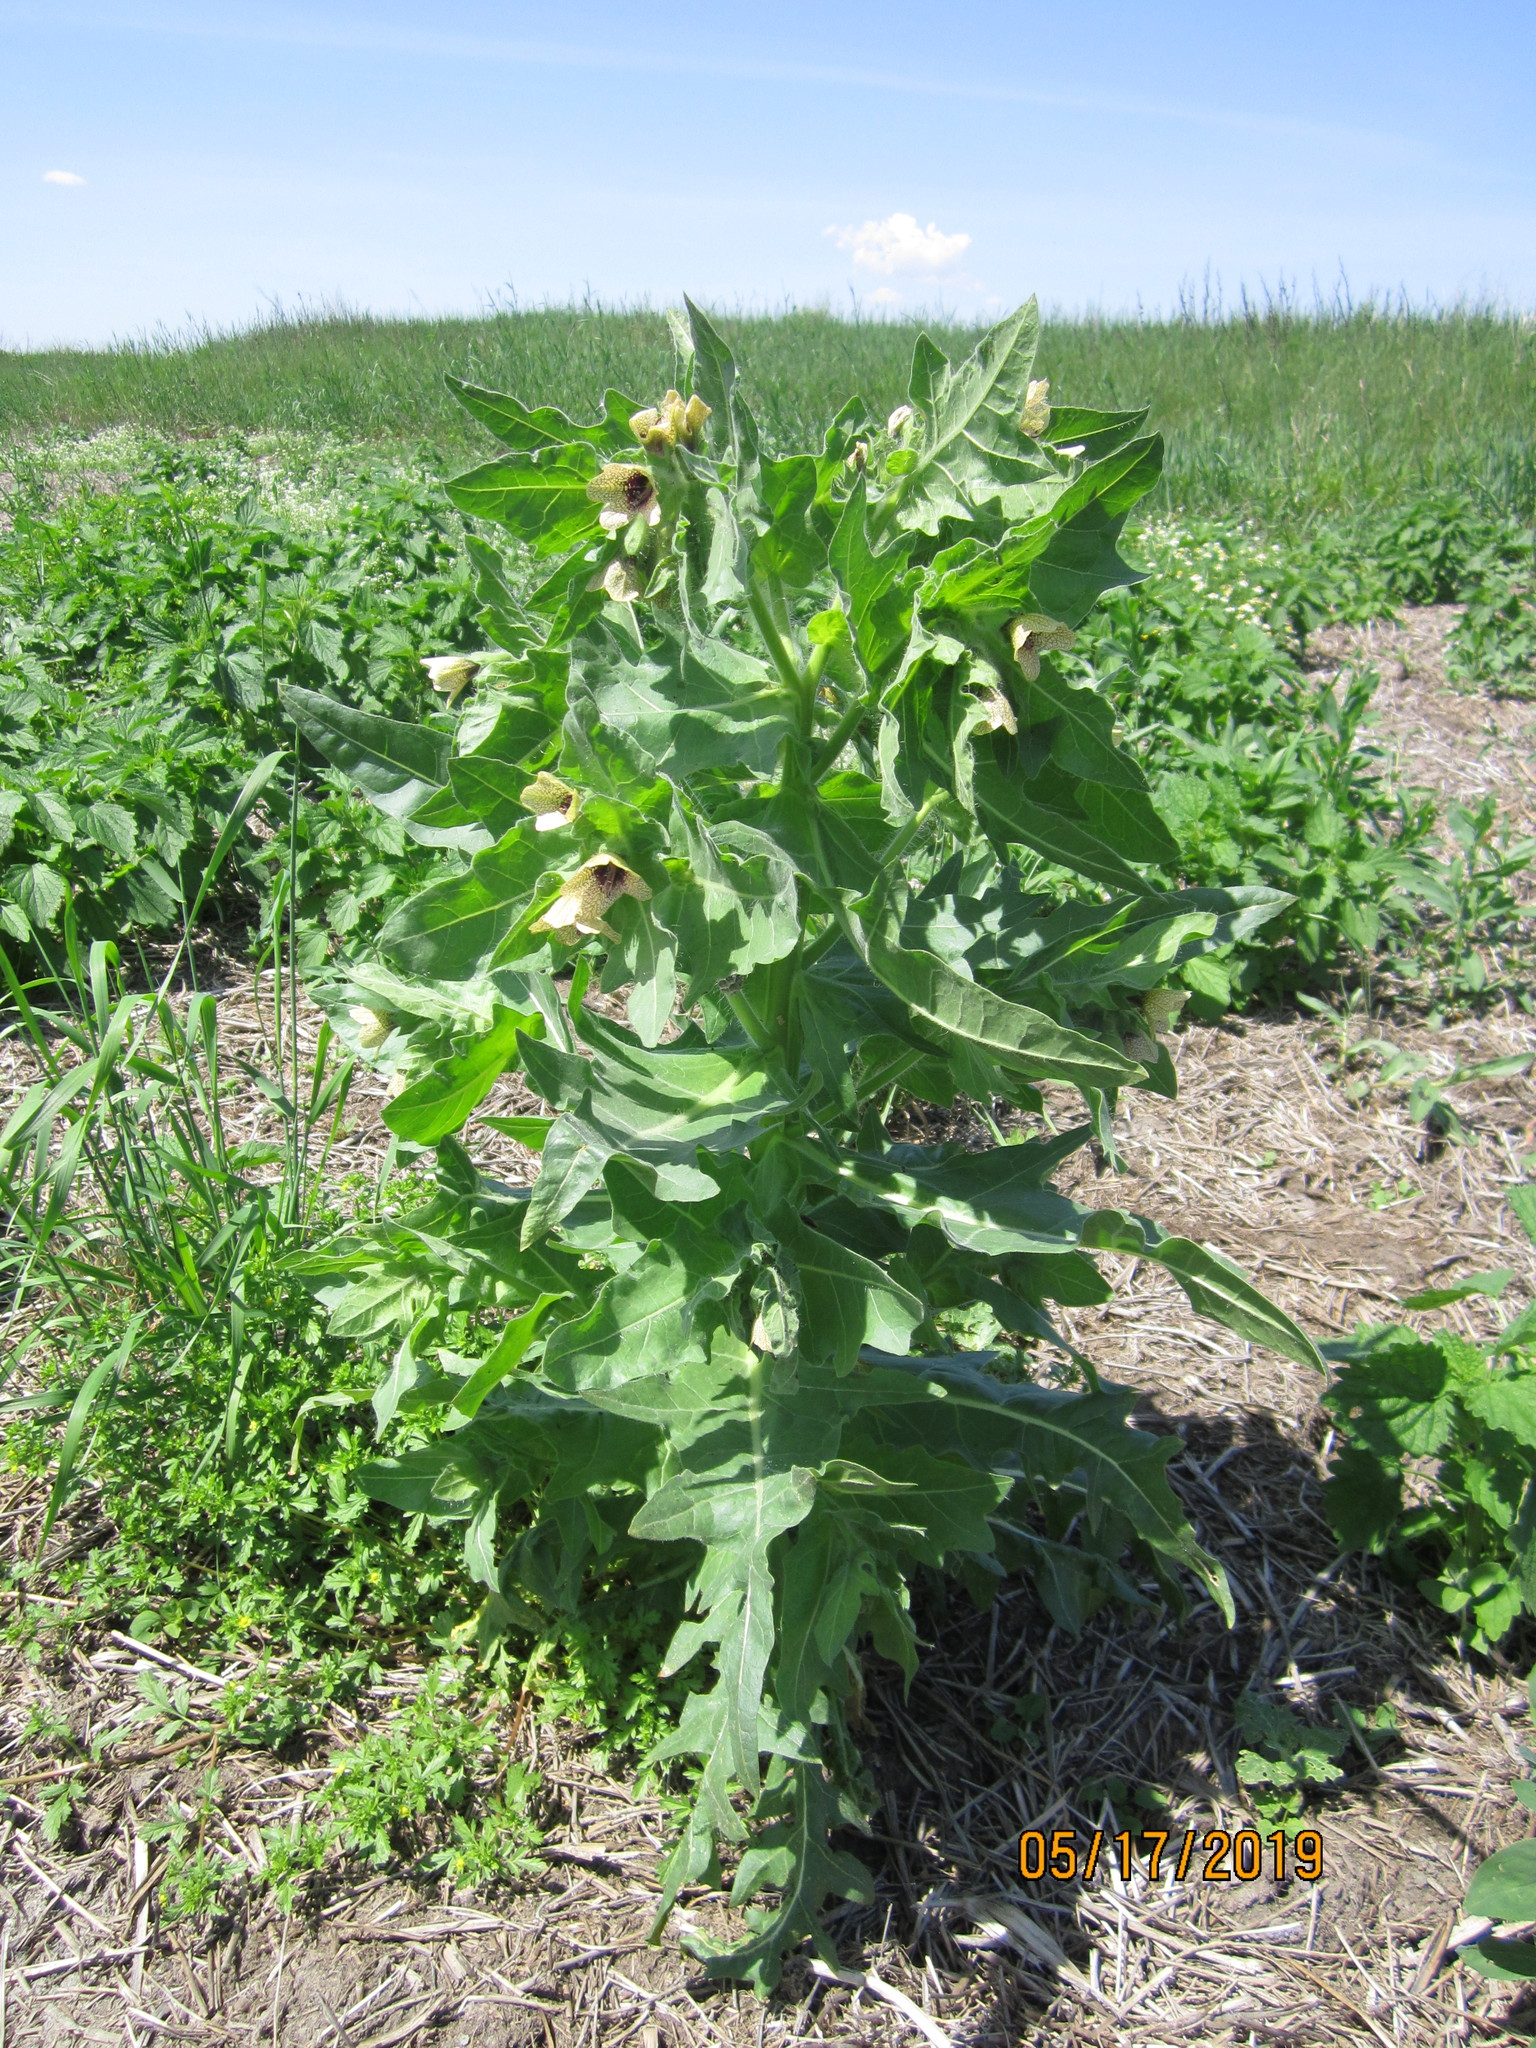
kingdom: Plantae
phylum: Tracheophyta
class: Magnoliopsida
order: Solanales
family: Solanaceae
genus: Hyoscyamus
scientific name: Hyoscyamus niger
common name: Henbane
